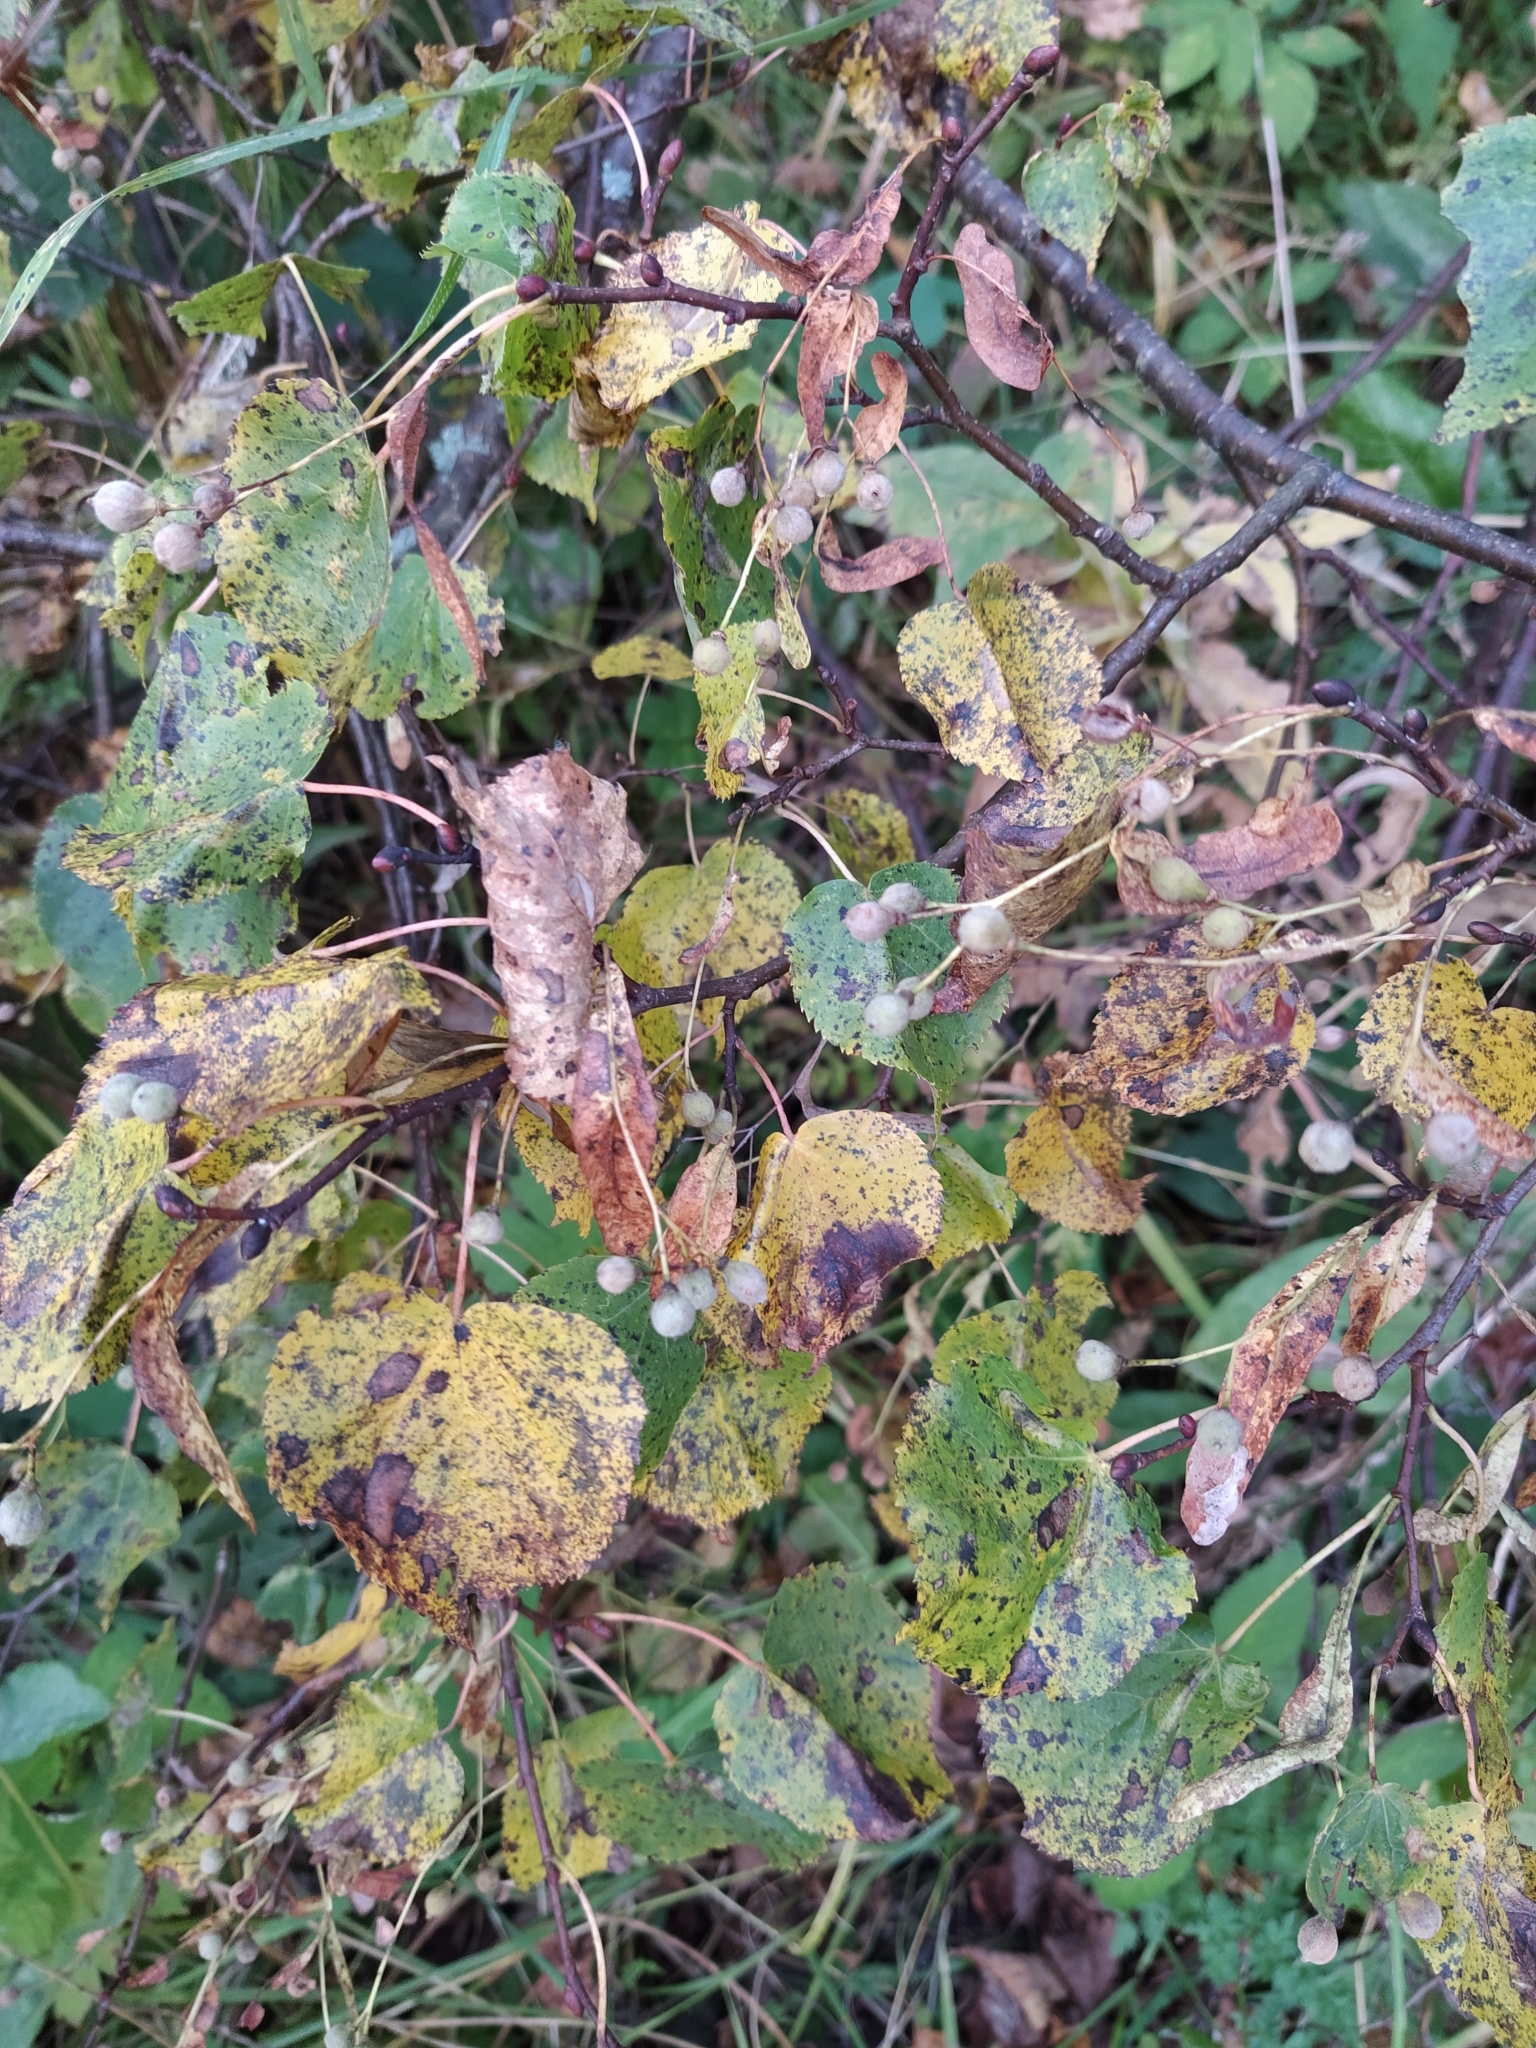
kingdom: Plantae
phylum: Tracheophyta
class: Magnoliopsida
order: Malvales
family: Malvaceae
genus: Tilia
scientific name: Tilia cordata
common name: Small-leaved lime
